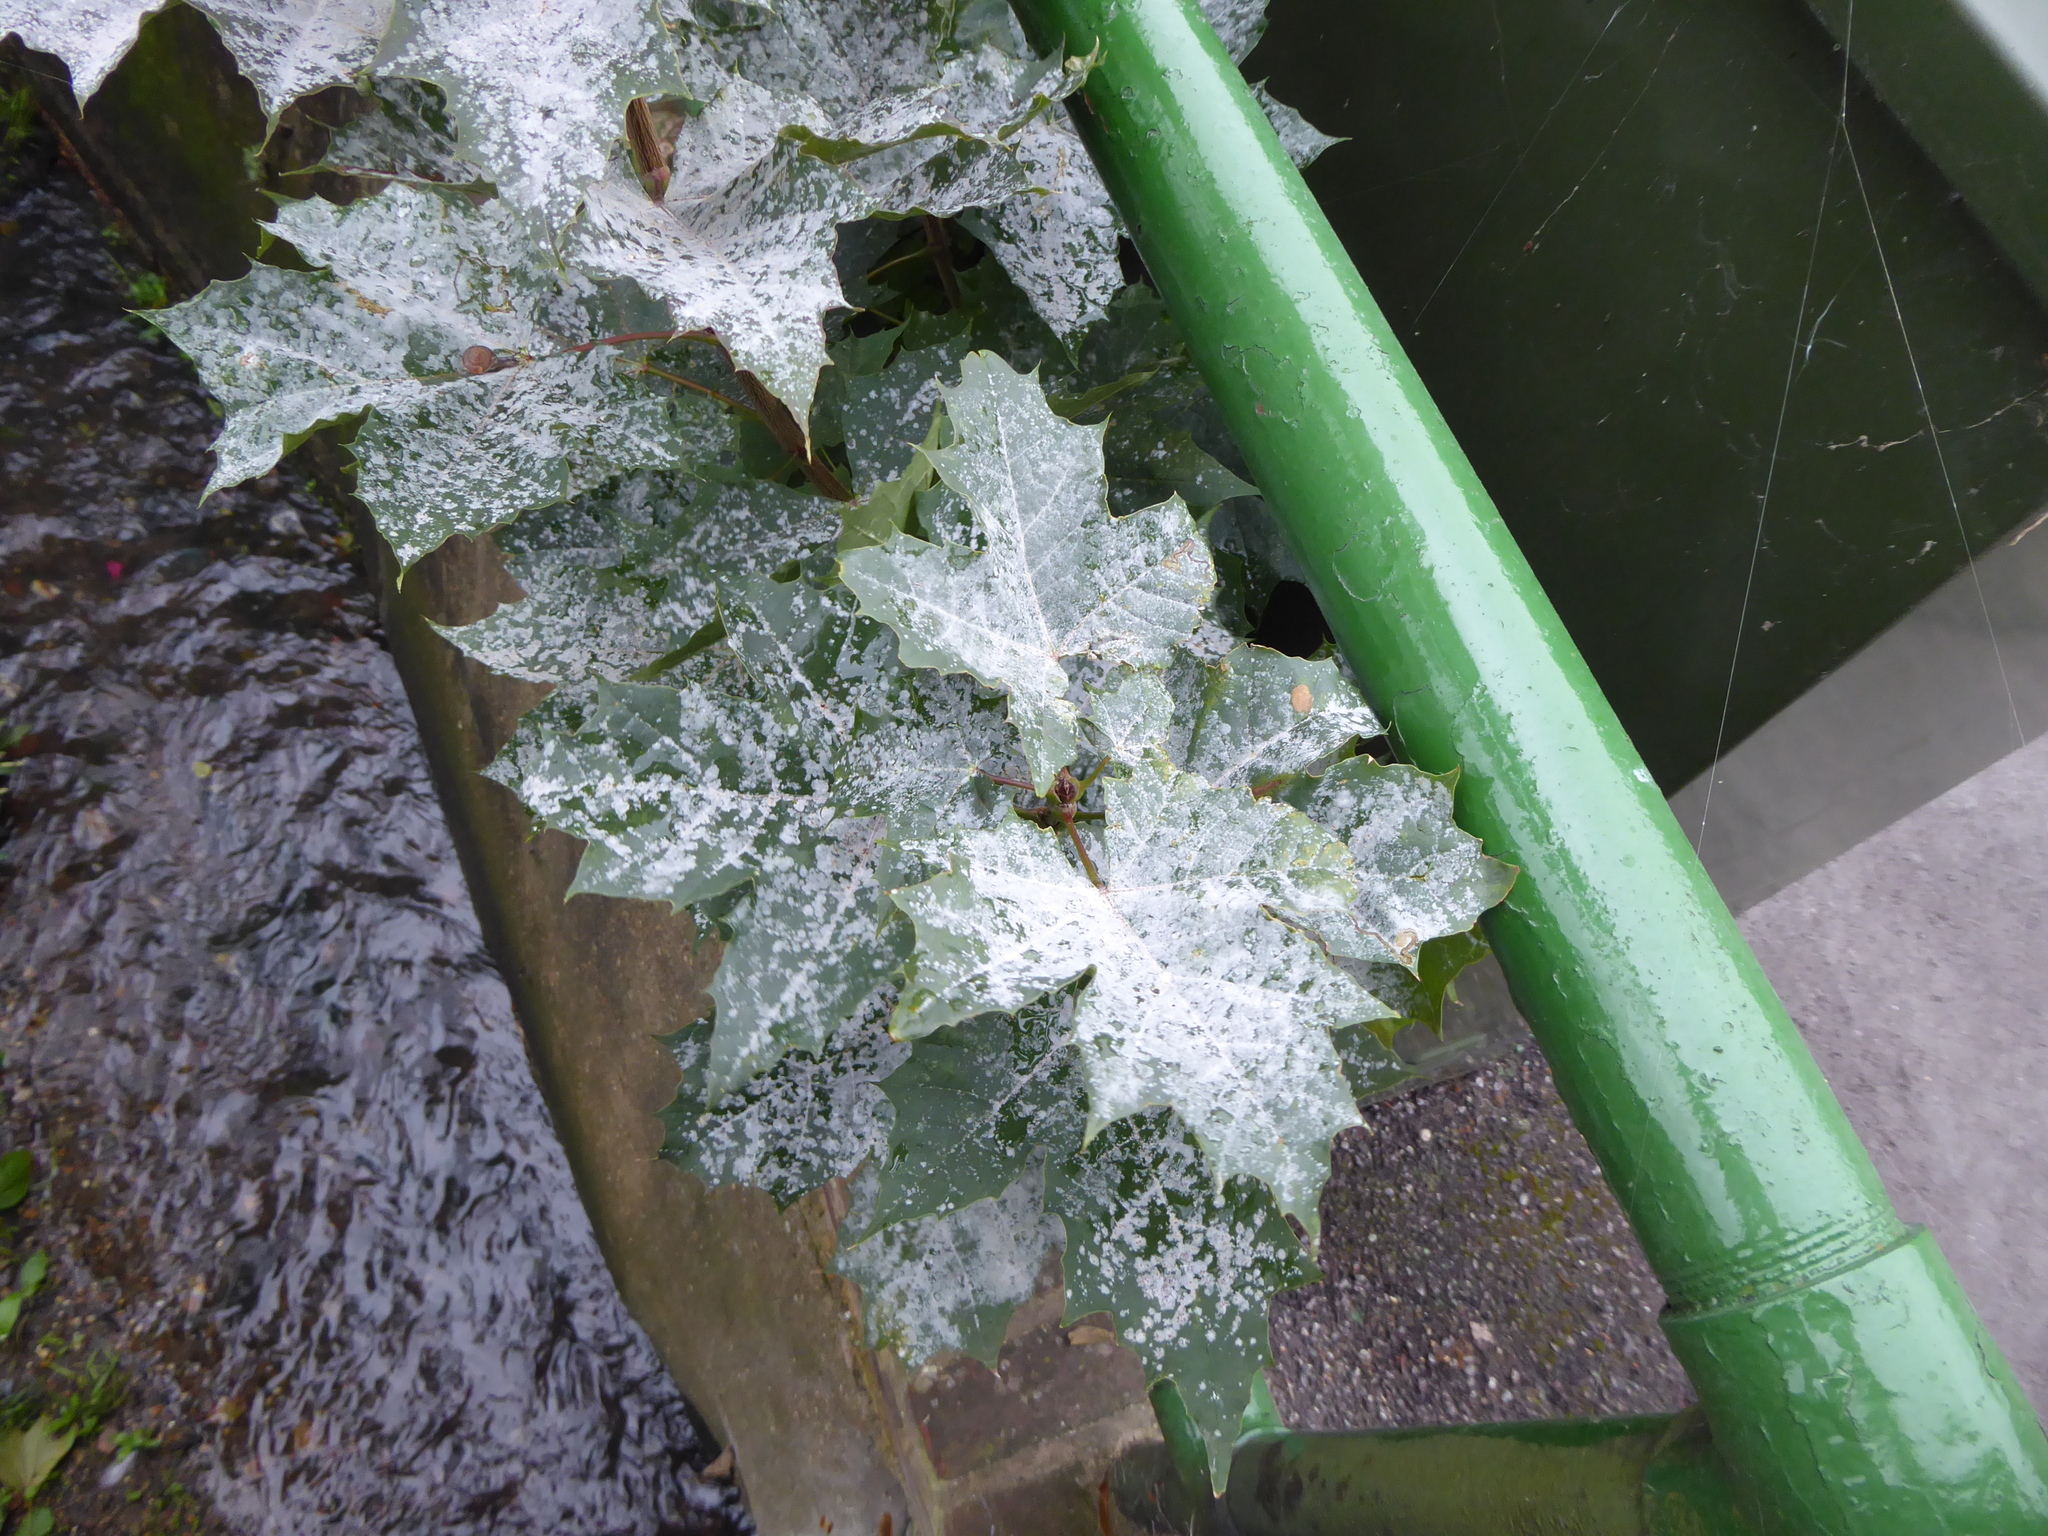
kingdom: Plantae
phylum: Tracheophyta
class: Magnoliopsida
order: Sapindales
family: Sapindaceae
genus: Acer
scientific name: Acer platanoides
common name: Norway maple
